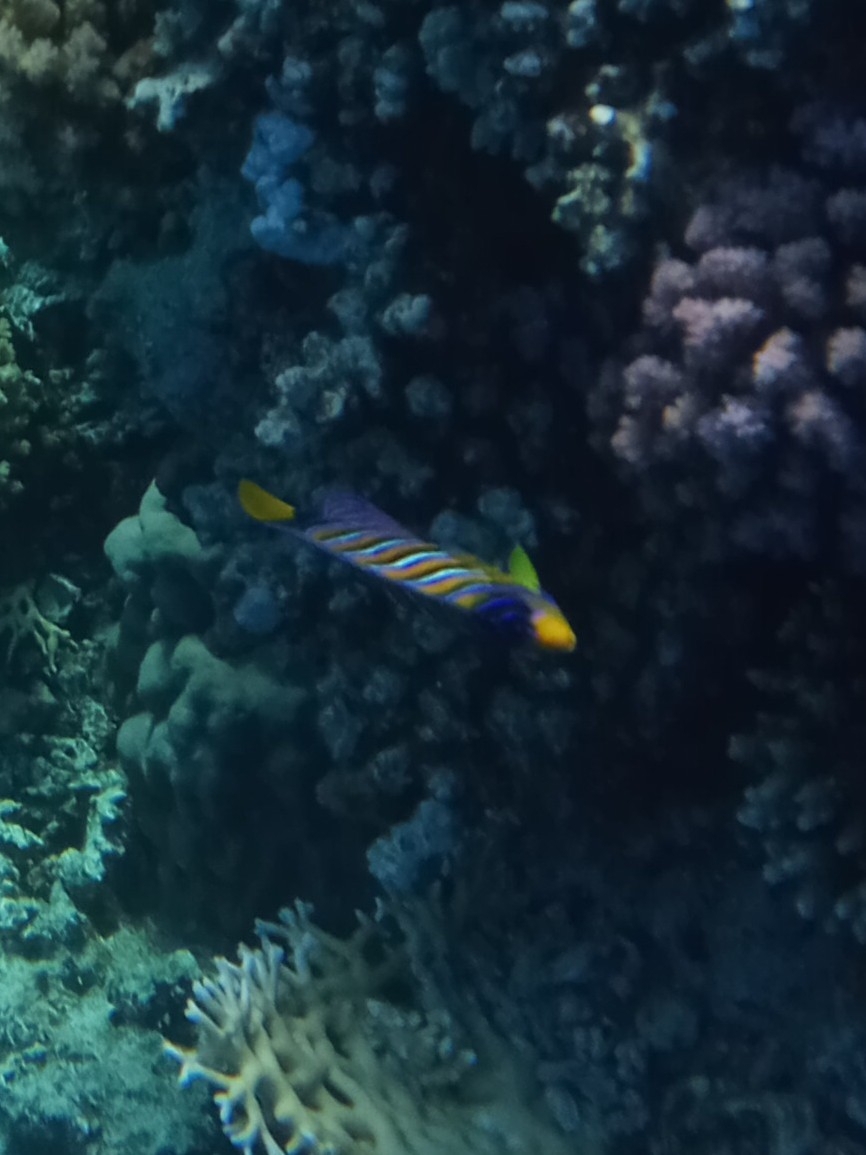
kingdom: Animalia
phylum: Chordata
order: Perciformes
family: Pomacanthidae
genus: Pygoplites
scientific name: Pygoplites diacanthus
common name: Regal angelfish
